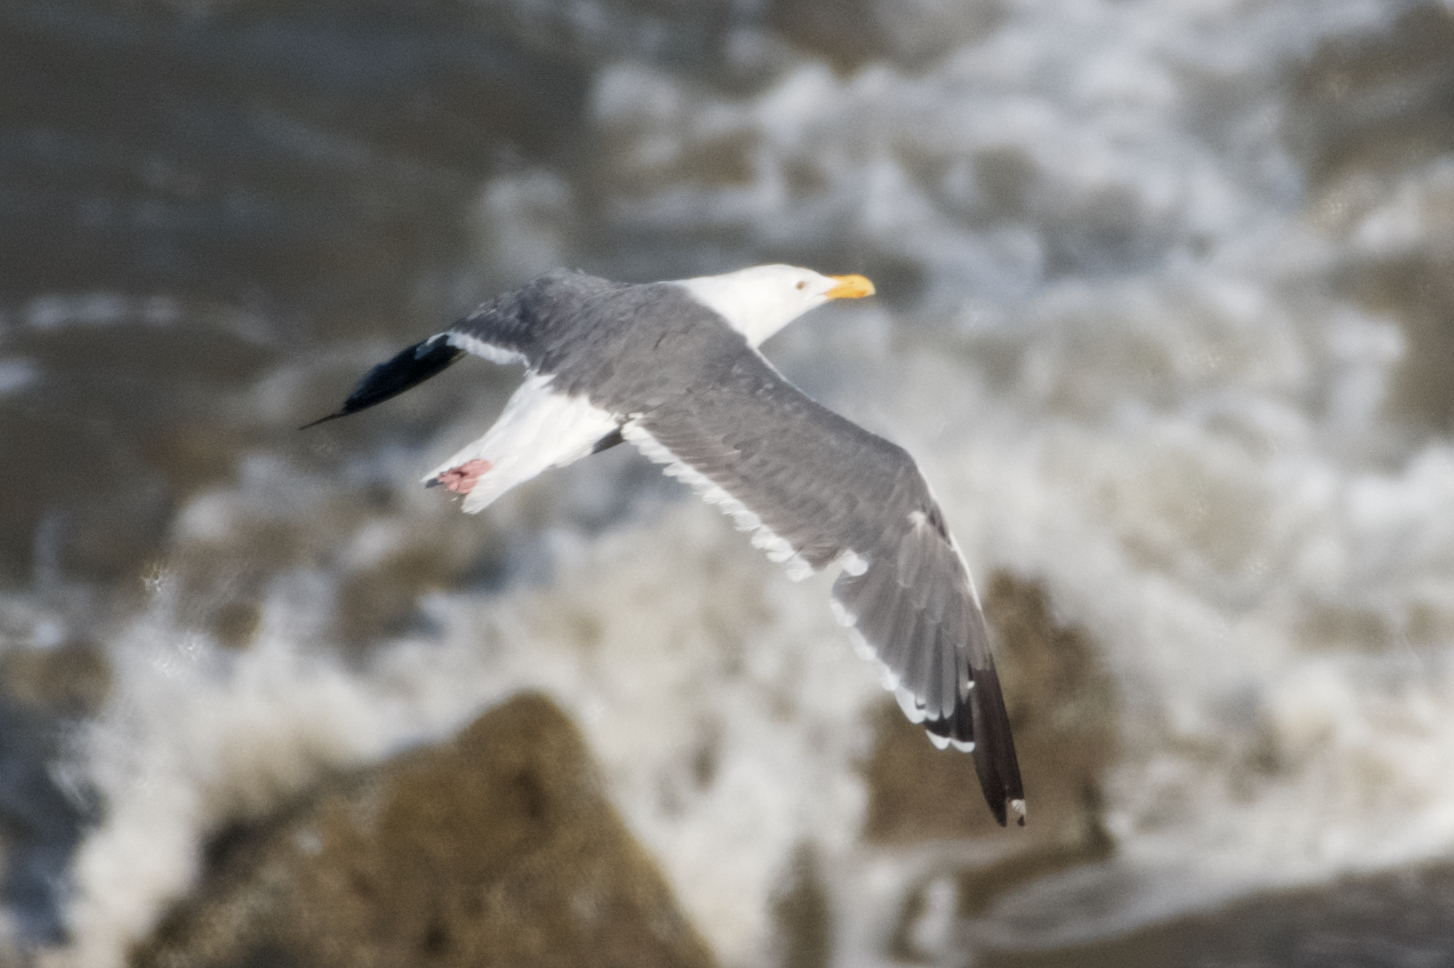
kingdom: Animalia
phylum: Chordata
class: Aves
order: Charadriiformes
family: Laridae
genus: Larus
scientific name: Larus occidentalis
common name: Western gull
